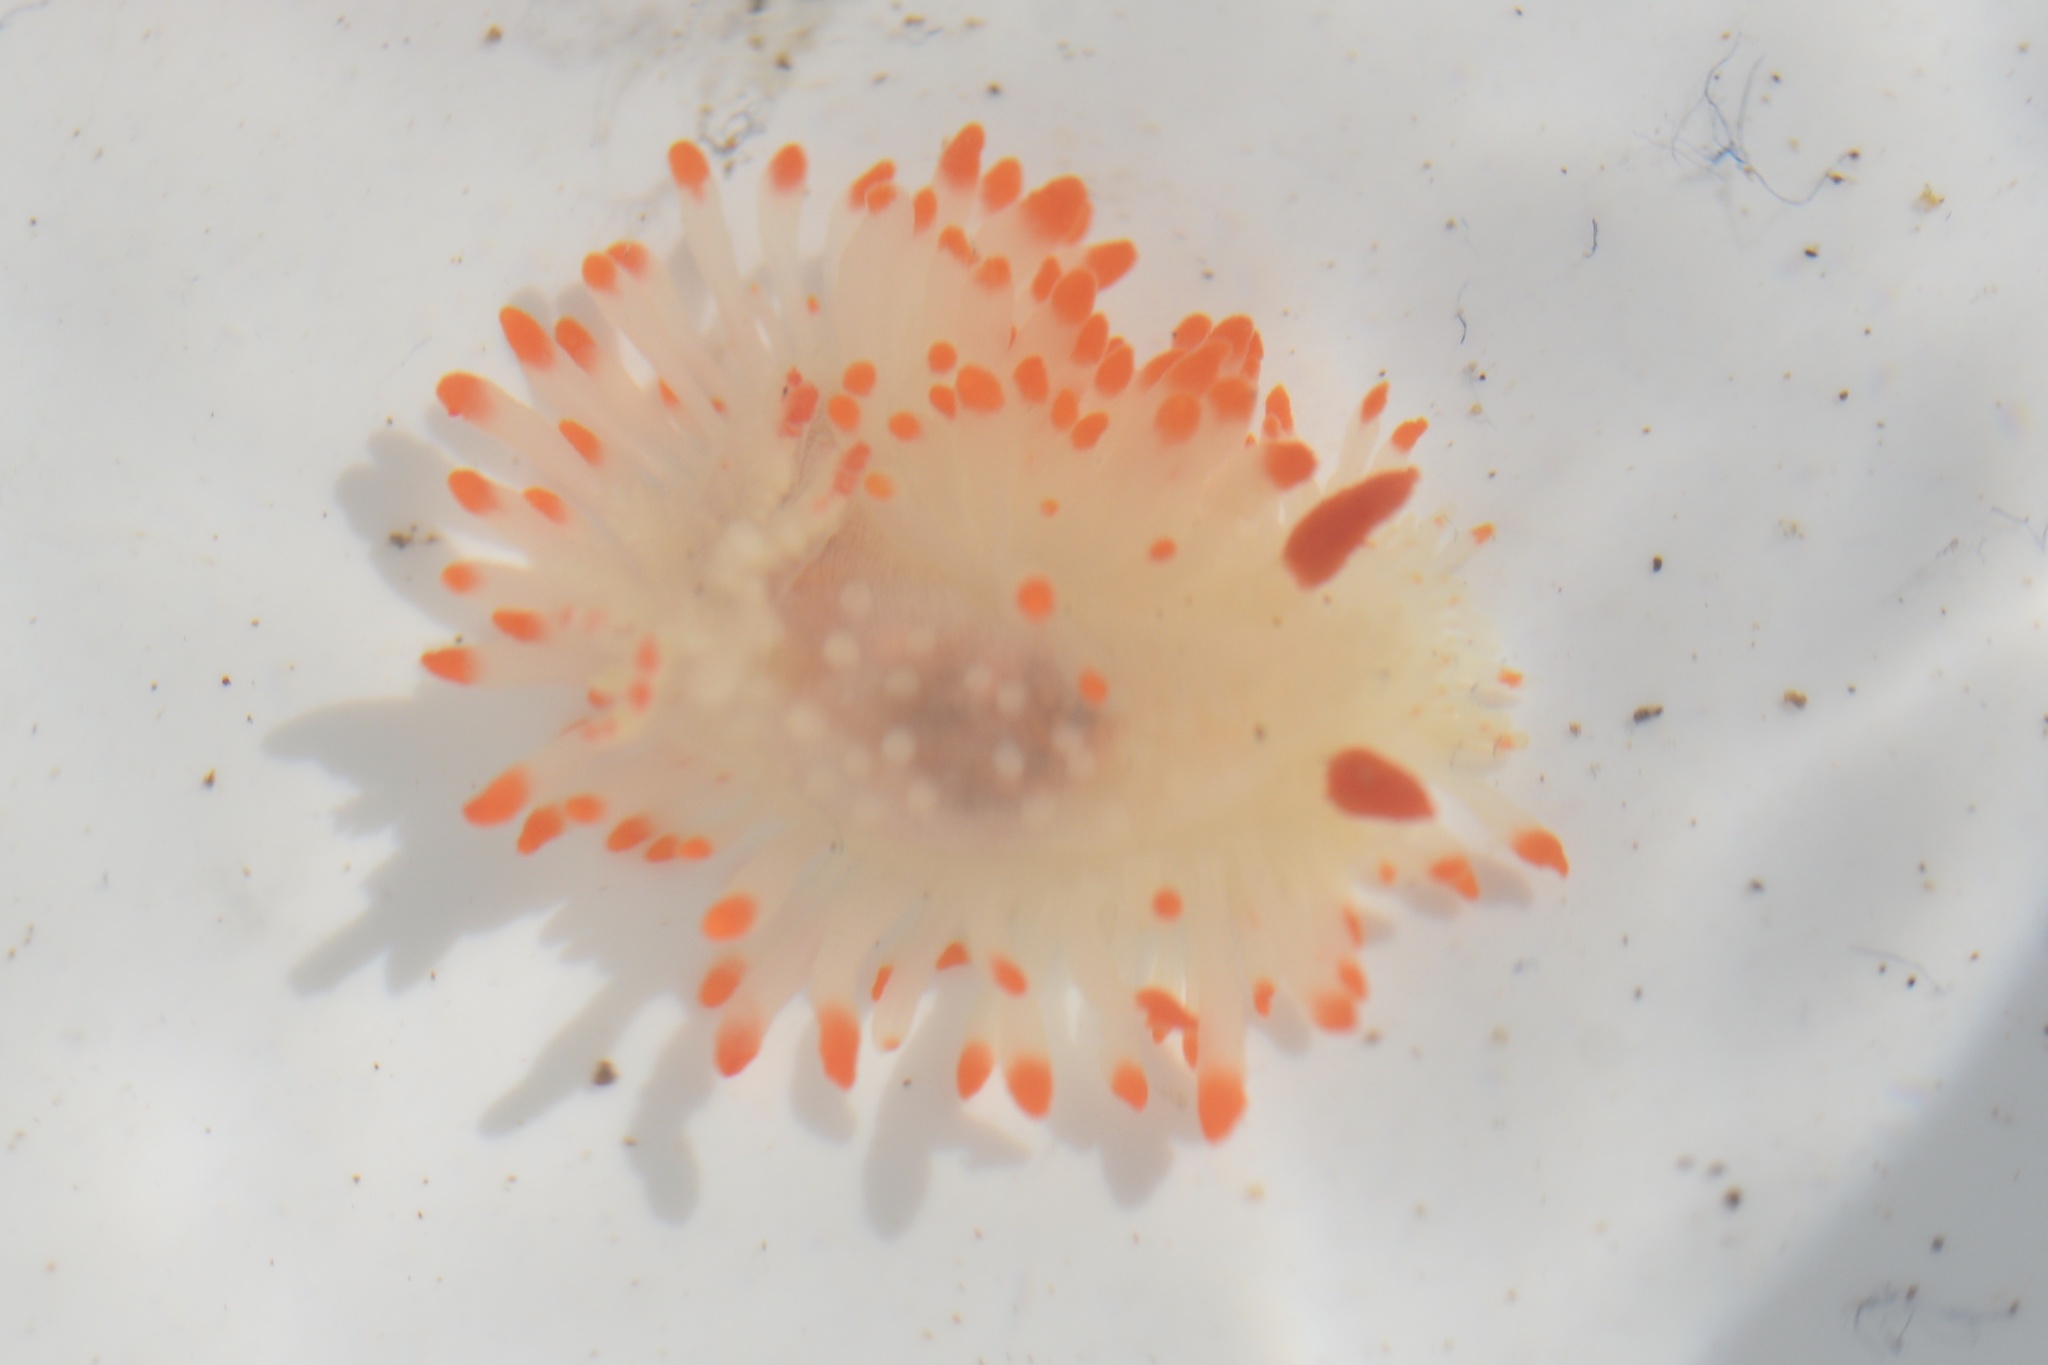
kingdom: Animalia
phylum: Mollusca
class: Gastropoda
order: Nudibranchia
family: Polyceridae
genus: Limacia
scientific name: Limacia cockerelli
